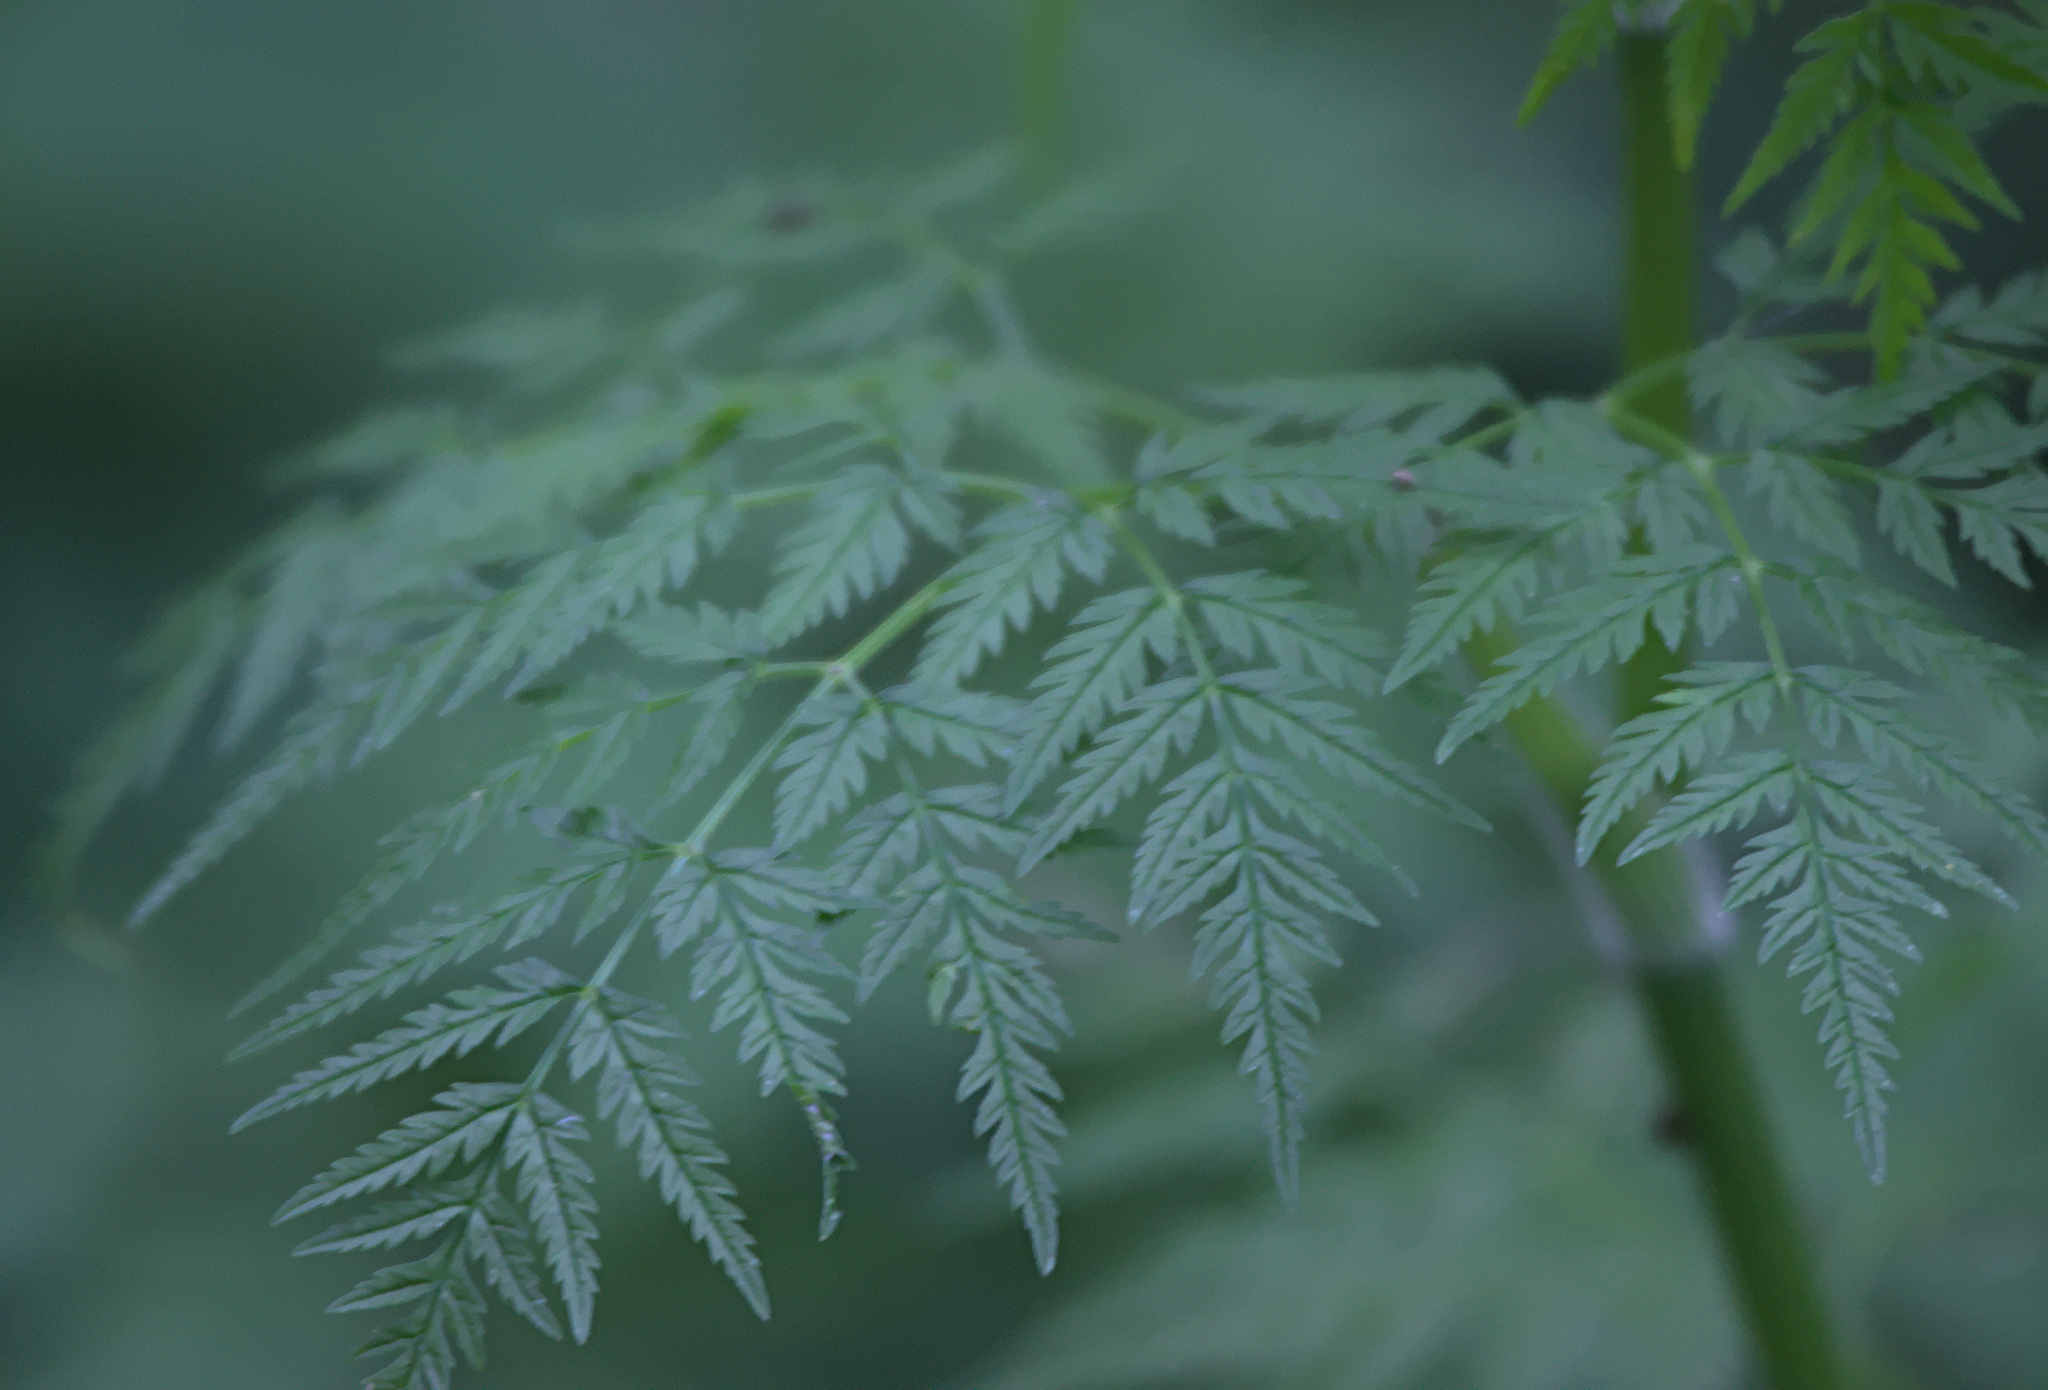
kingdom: Plantae
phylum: Tracheophyta
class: Magnoliopsida
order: Apiales
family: Apiaceae
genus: Anthriscus
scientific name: Anthriscus sylvestris
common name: Cow parsley
